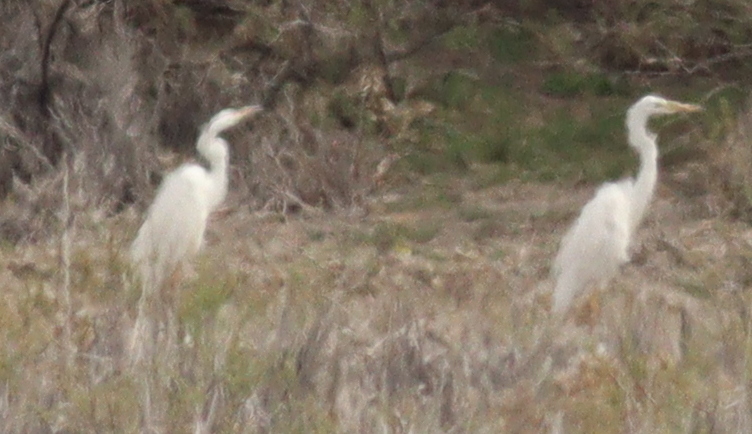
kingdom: Animalia
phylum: Chordata
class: Aves
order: Pelecaniformes
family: Ardeidae
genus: Ardea
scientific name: Ardea alba
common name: Great egret
